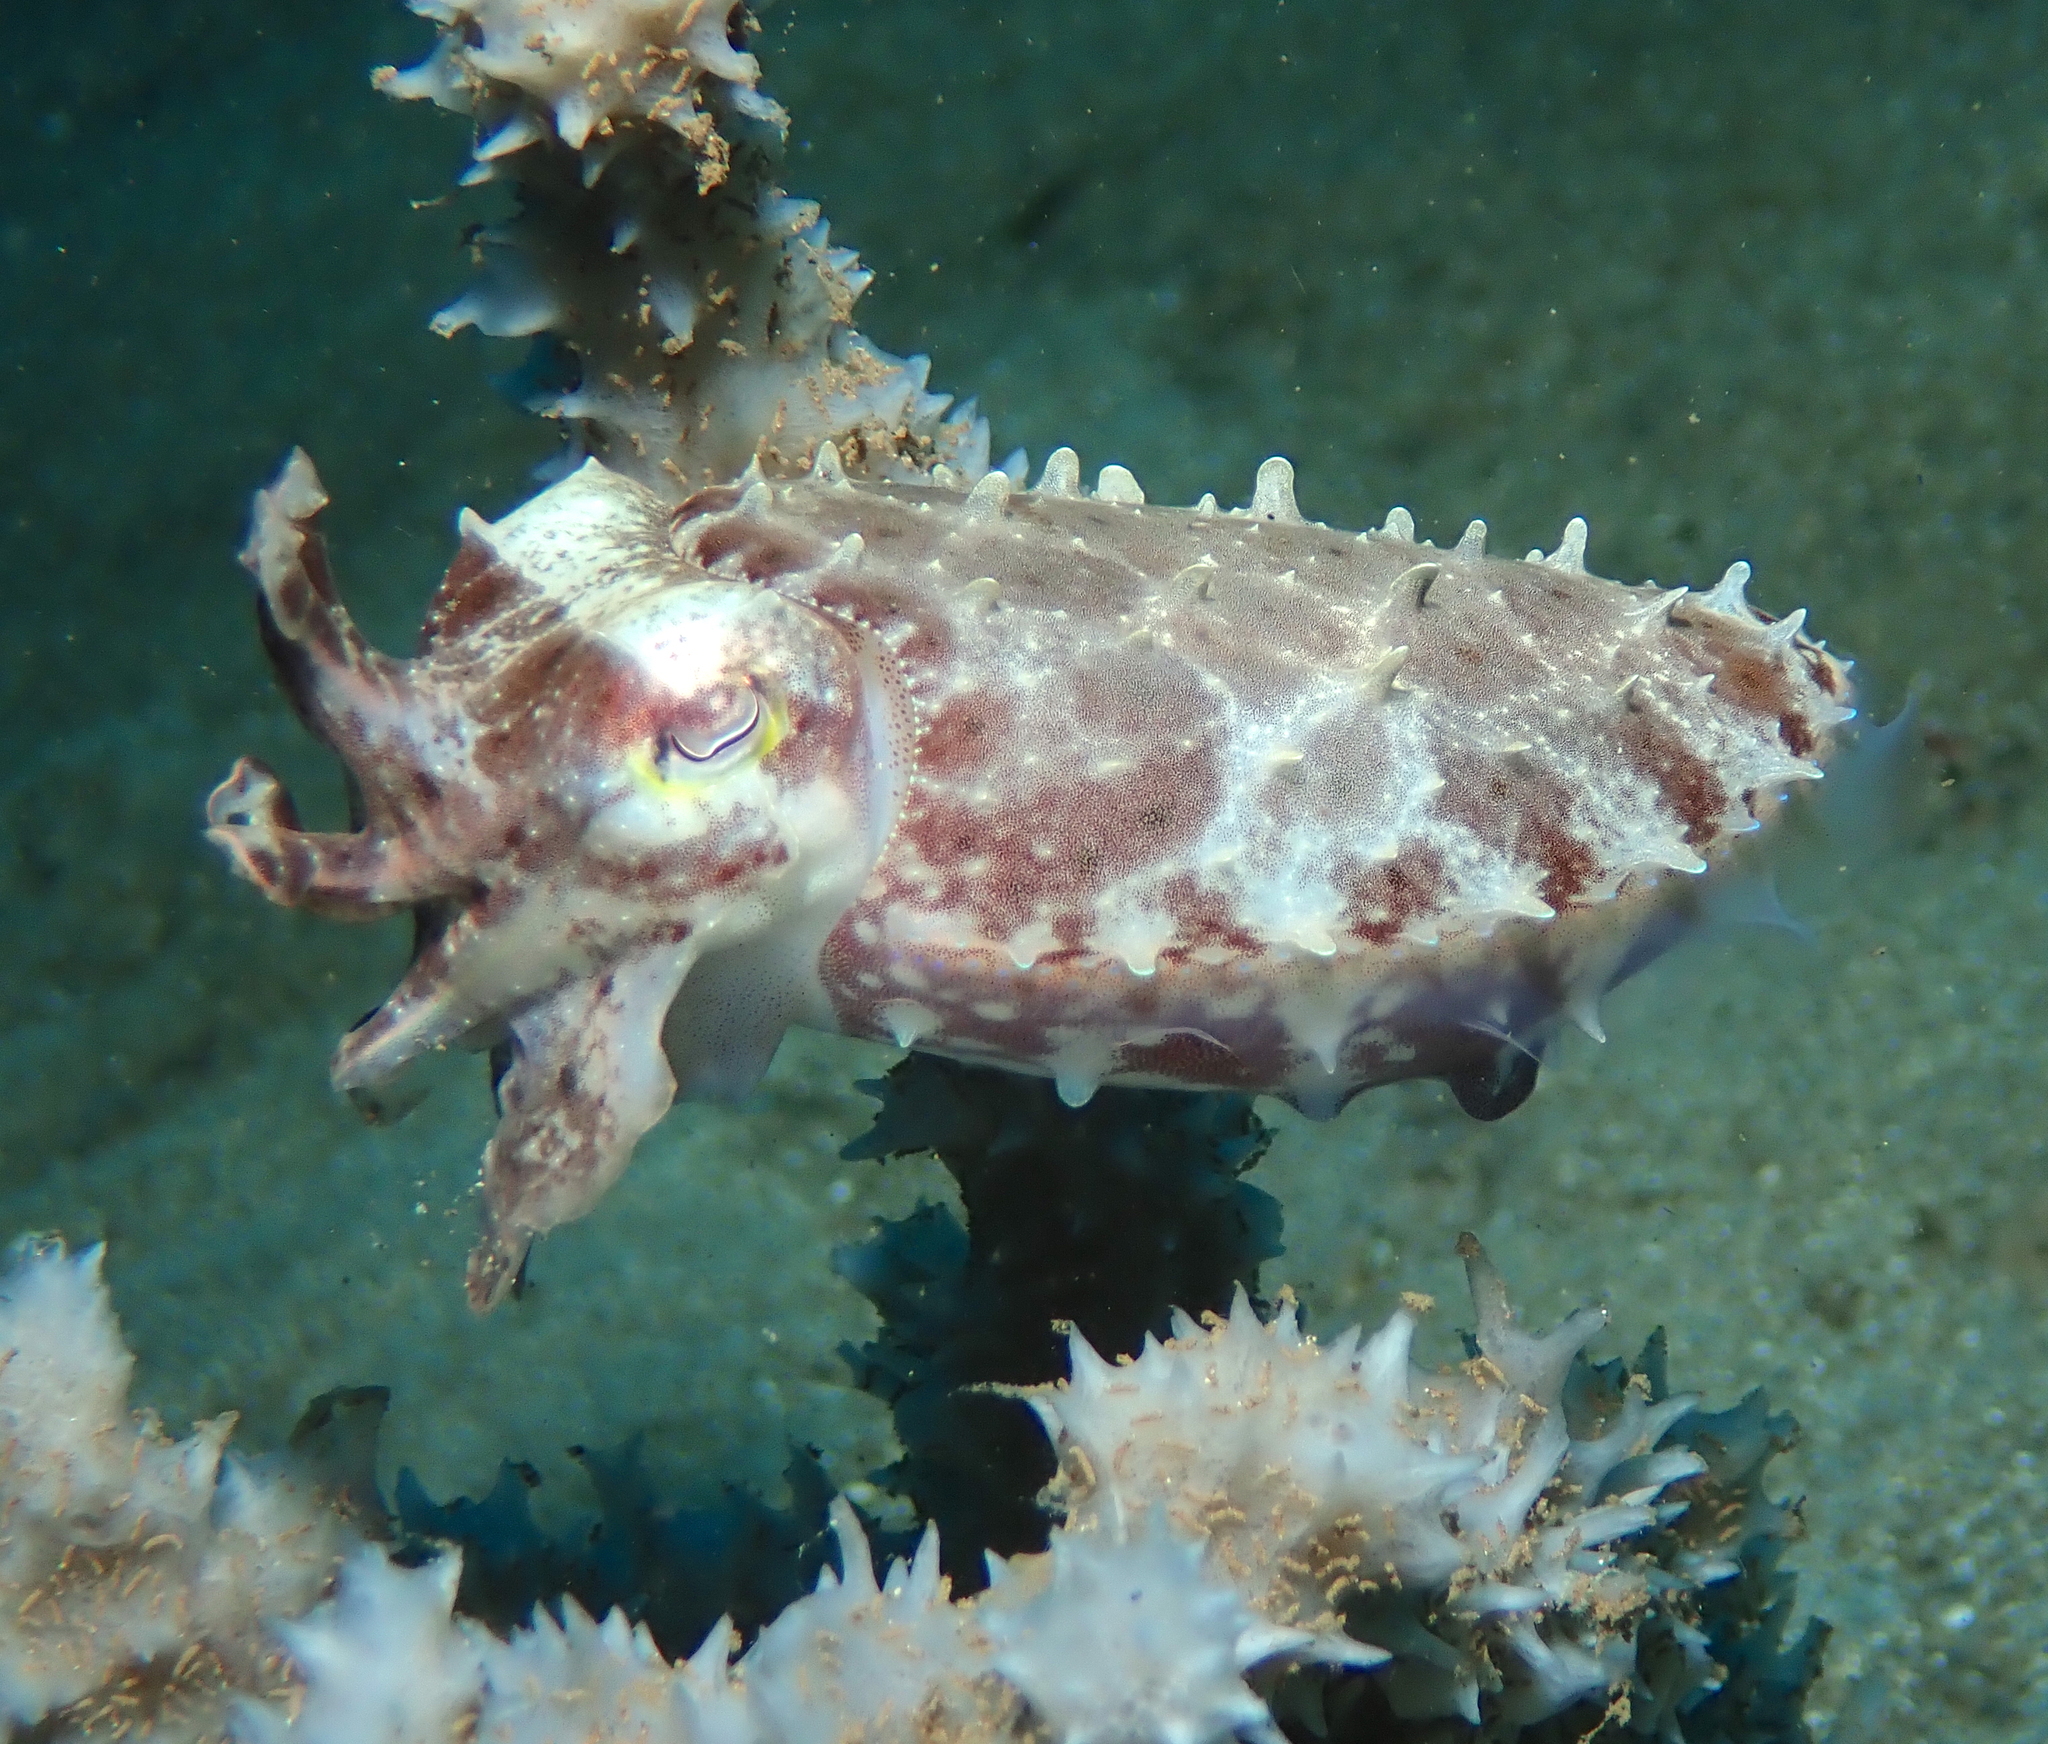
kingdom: Animalia
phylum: Mollusca
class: Cephalopoda
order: Sepiida
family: Sepiidae
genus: Ascarosepion
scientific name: Ascarosepion latimanus
